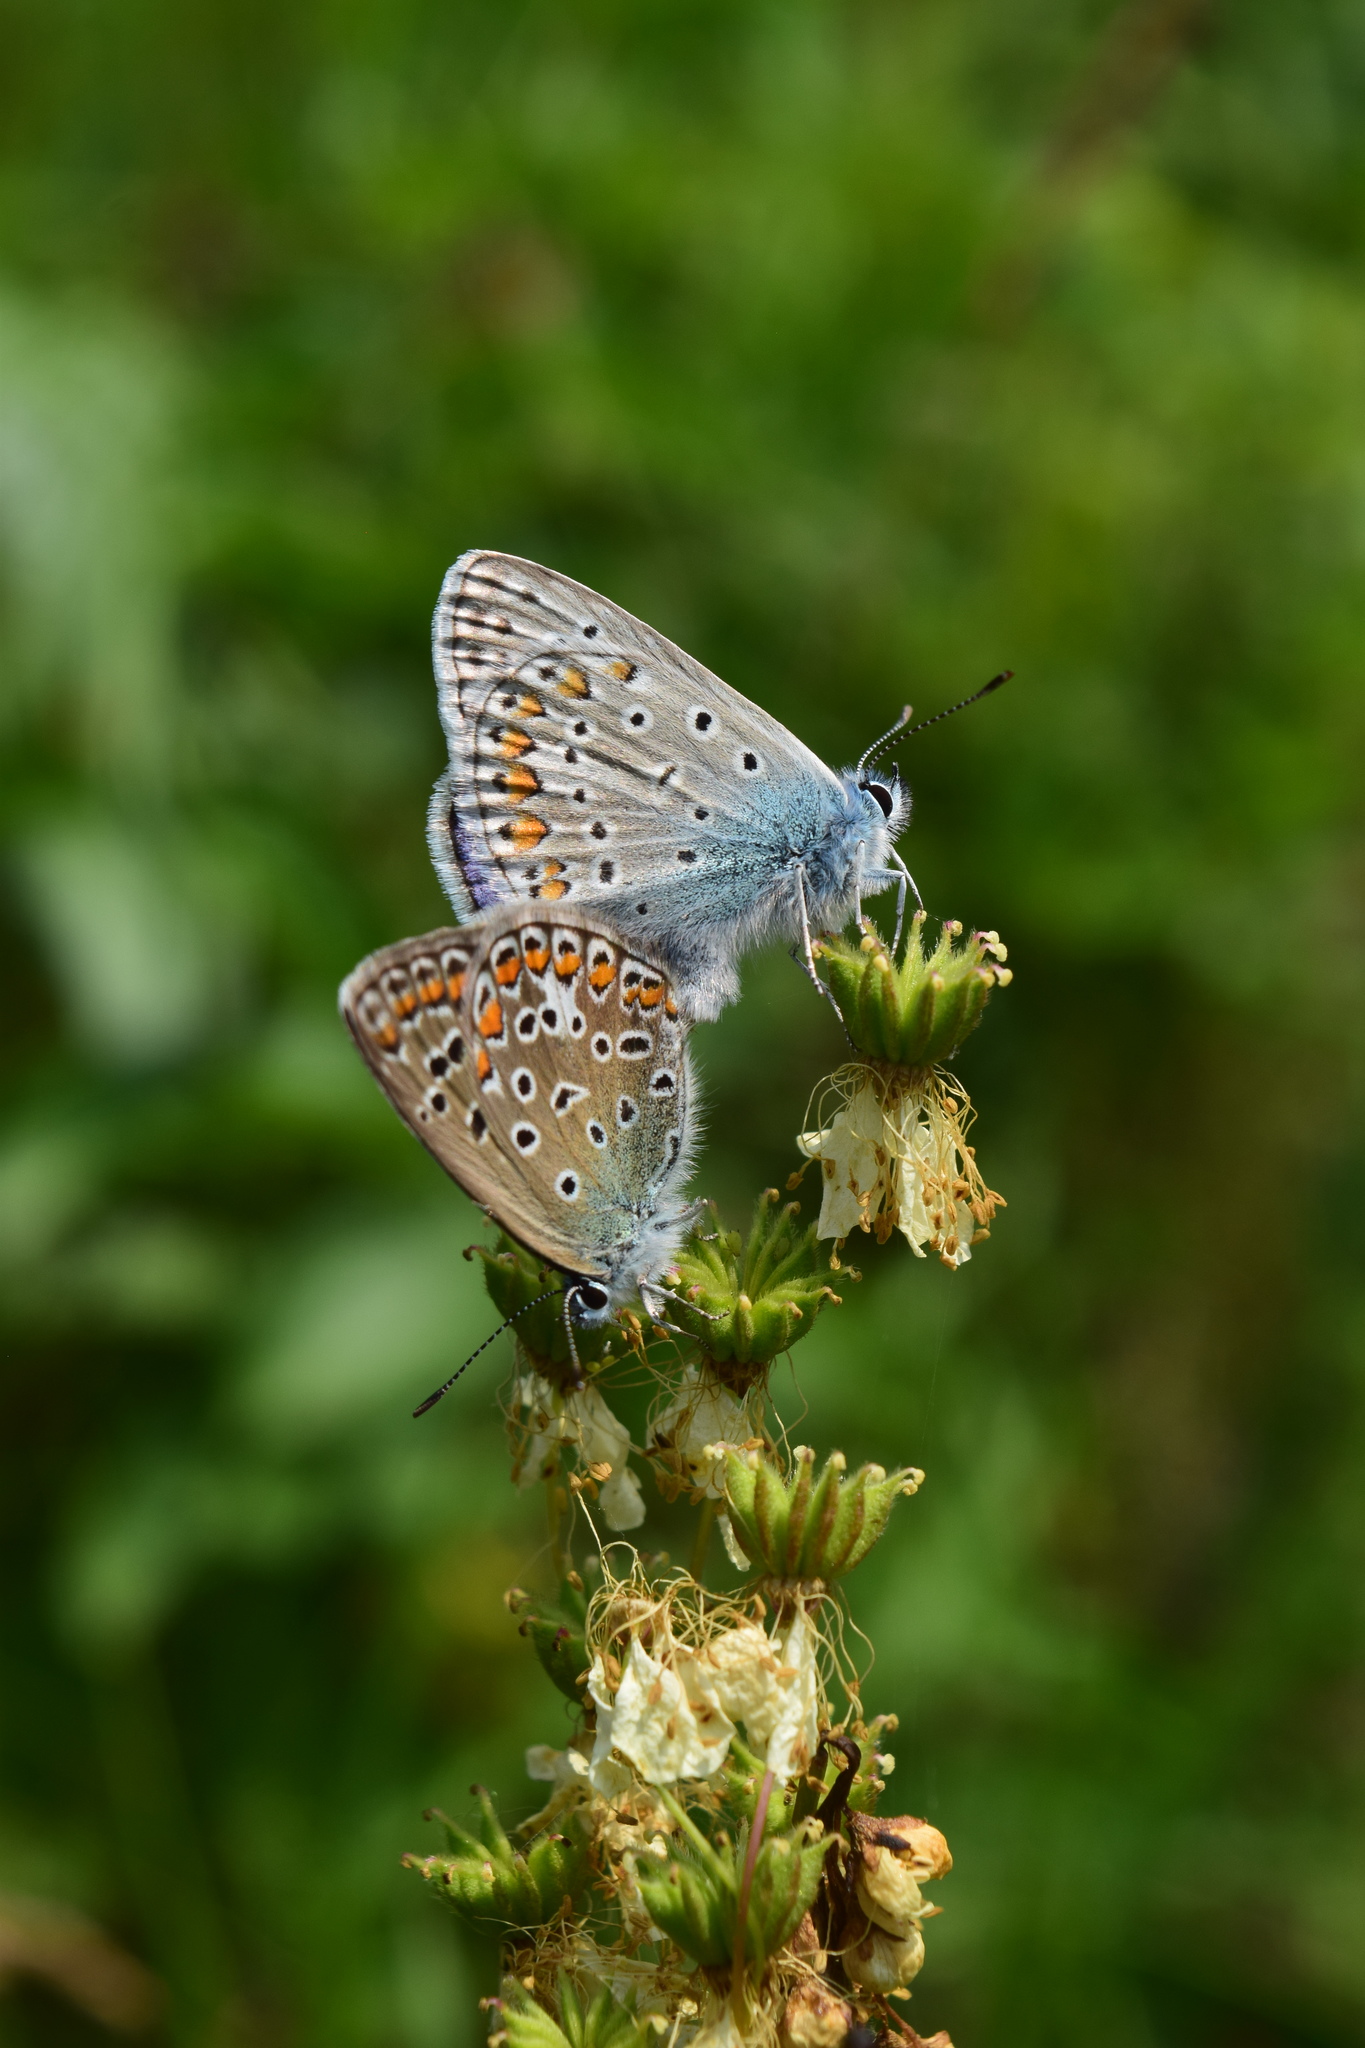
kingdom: Animalia
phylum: Arthropoda
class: Insecta
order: Lepidoptera
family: Lycaenidae
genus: Polyommatus
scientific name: Polyommatus icarus
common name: Common blue
